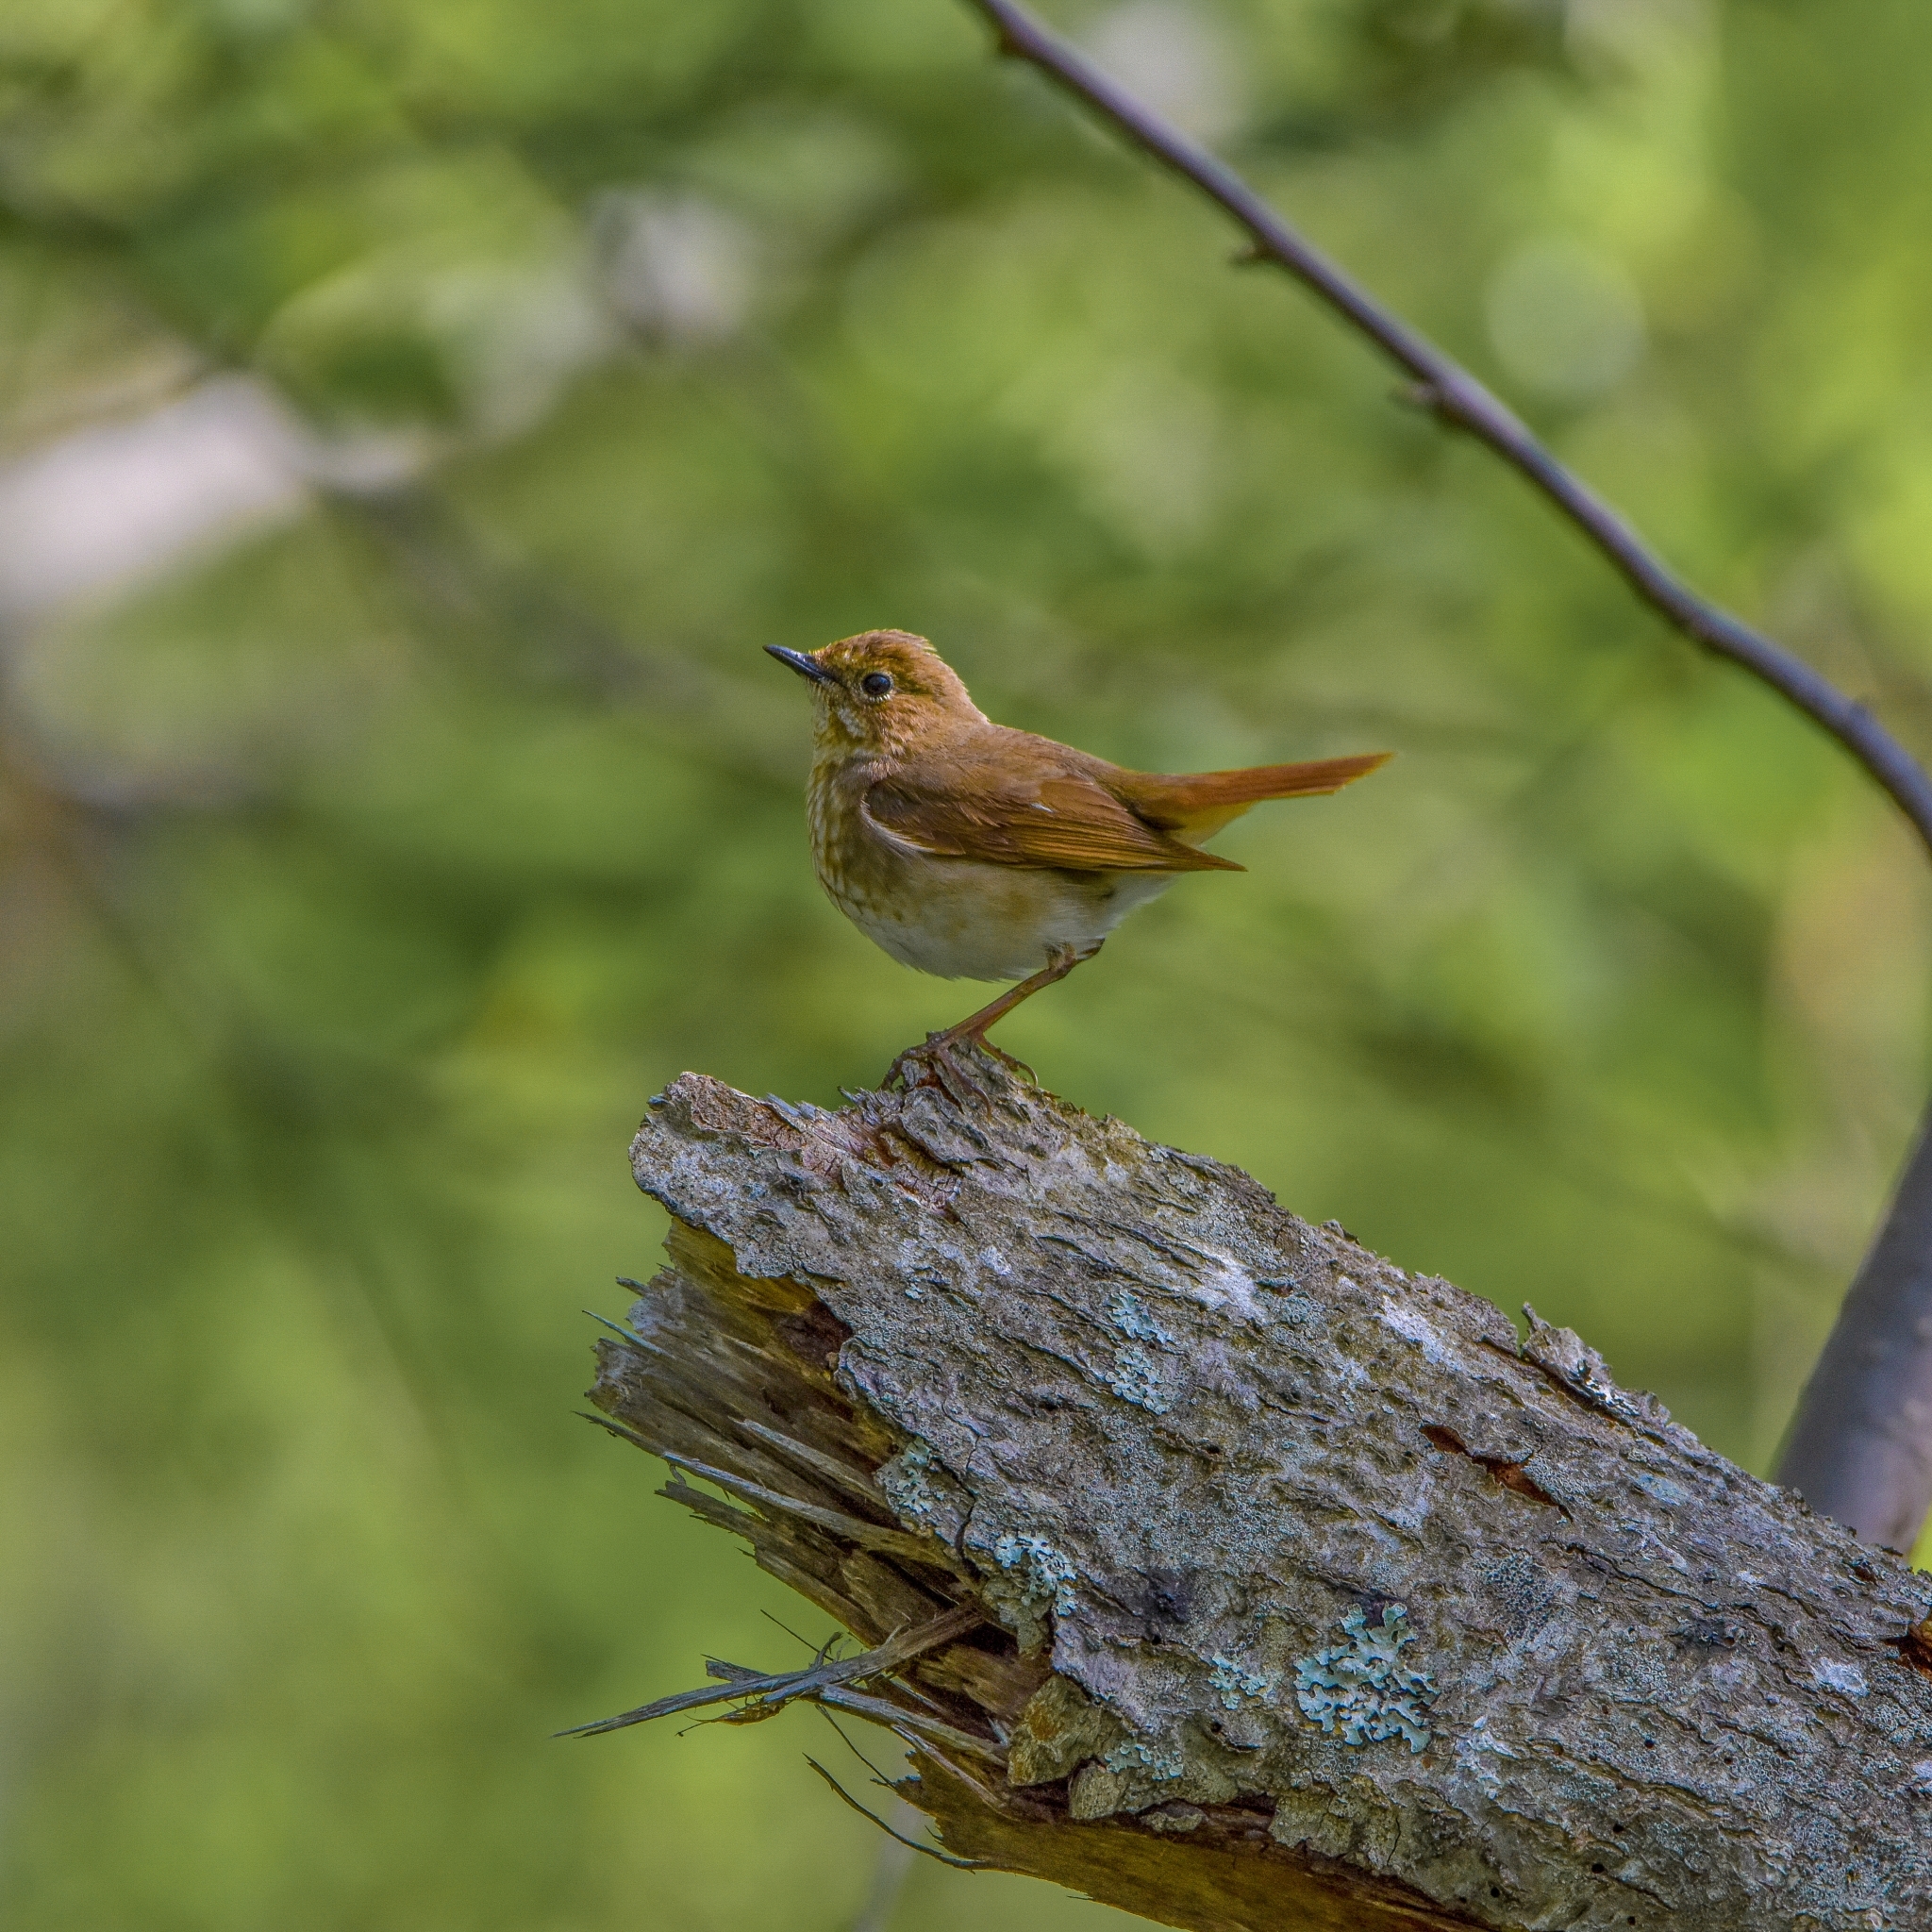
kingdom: Animalia
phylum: Chordata
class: Aves
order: Passeriformes
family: Muscicapidae
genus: Larvivora
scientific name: Larvivora sibilans
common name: Rufous-tailed robin
